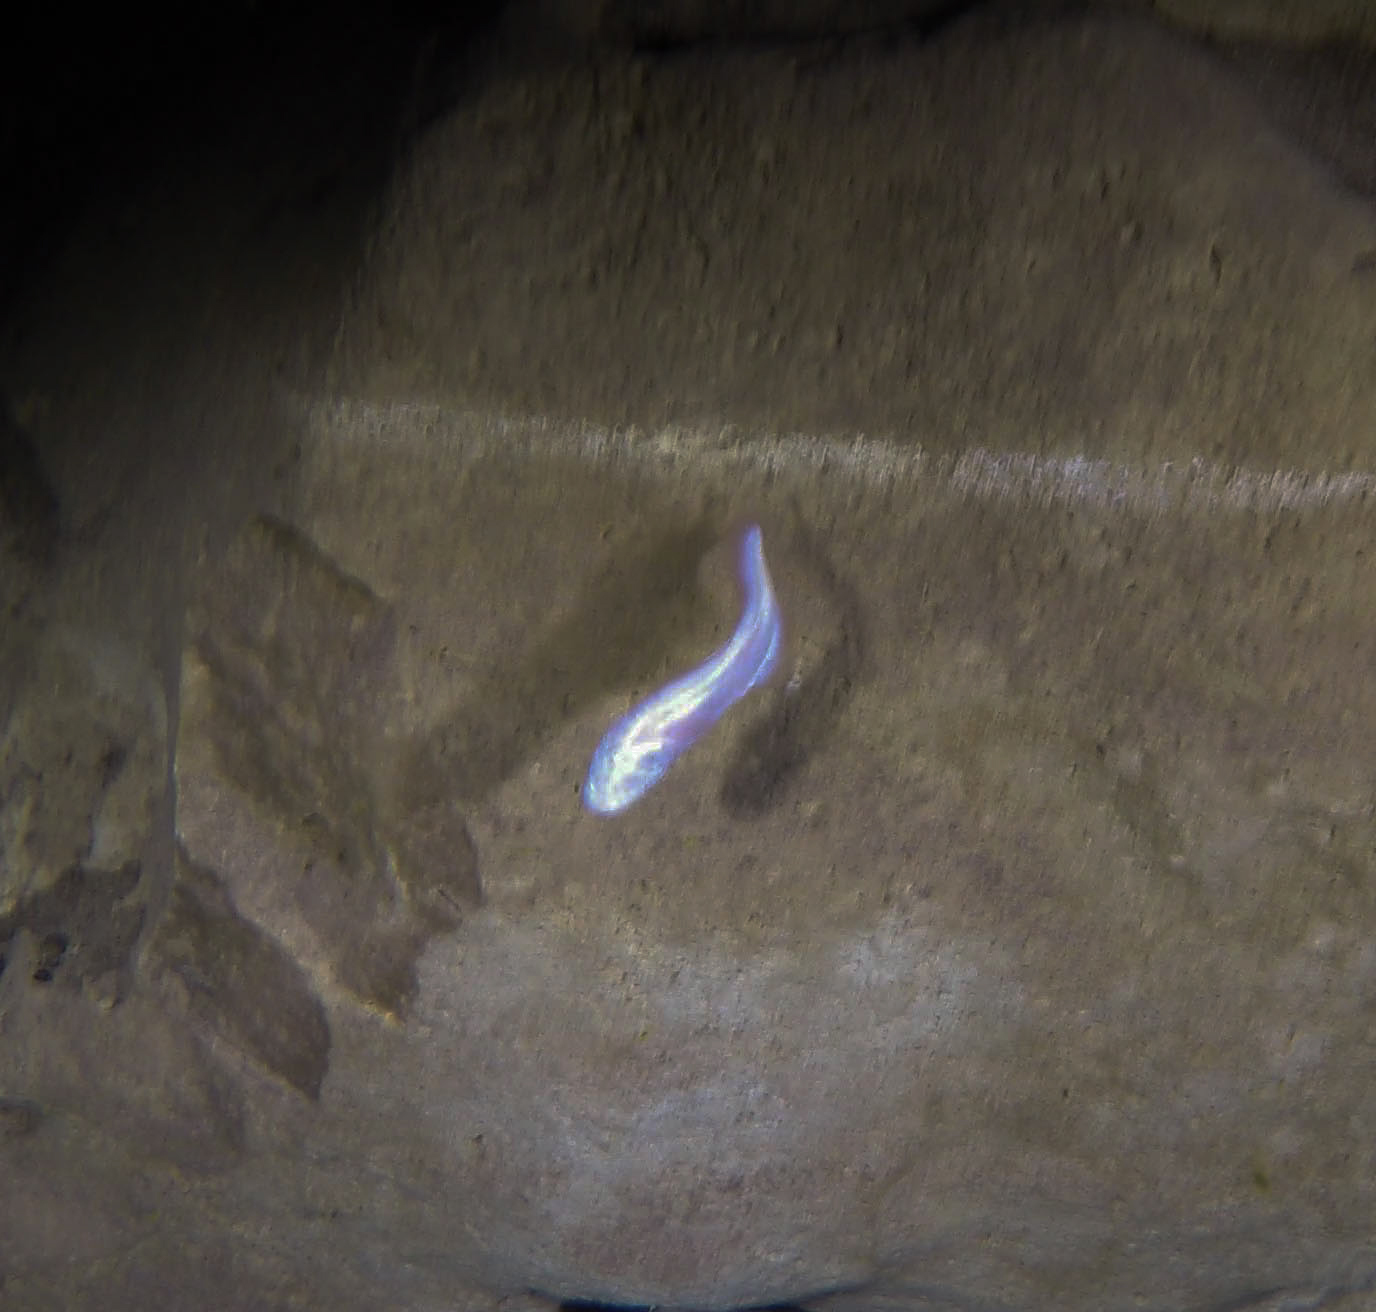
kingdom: Animalia
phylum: Chordata
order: Ophidiiformes
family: Bythitidae
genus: Typhliasina
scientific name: Typhliasina pearsei
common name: Dama ciega blanca
